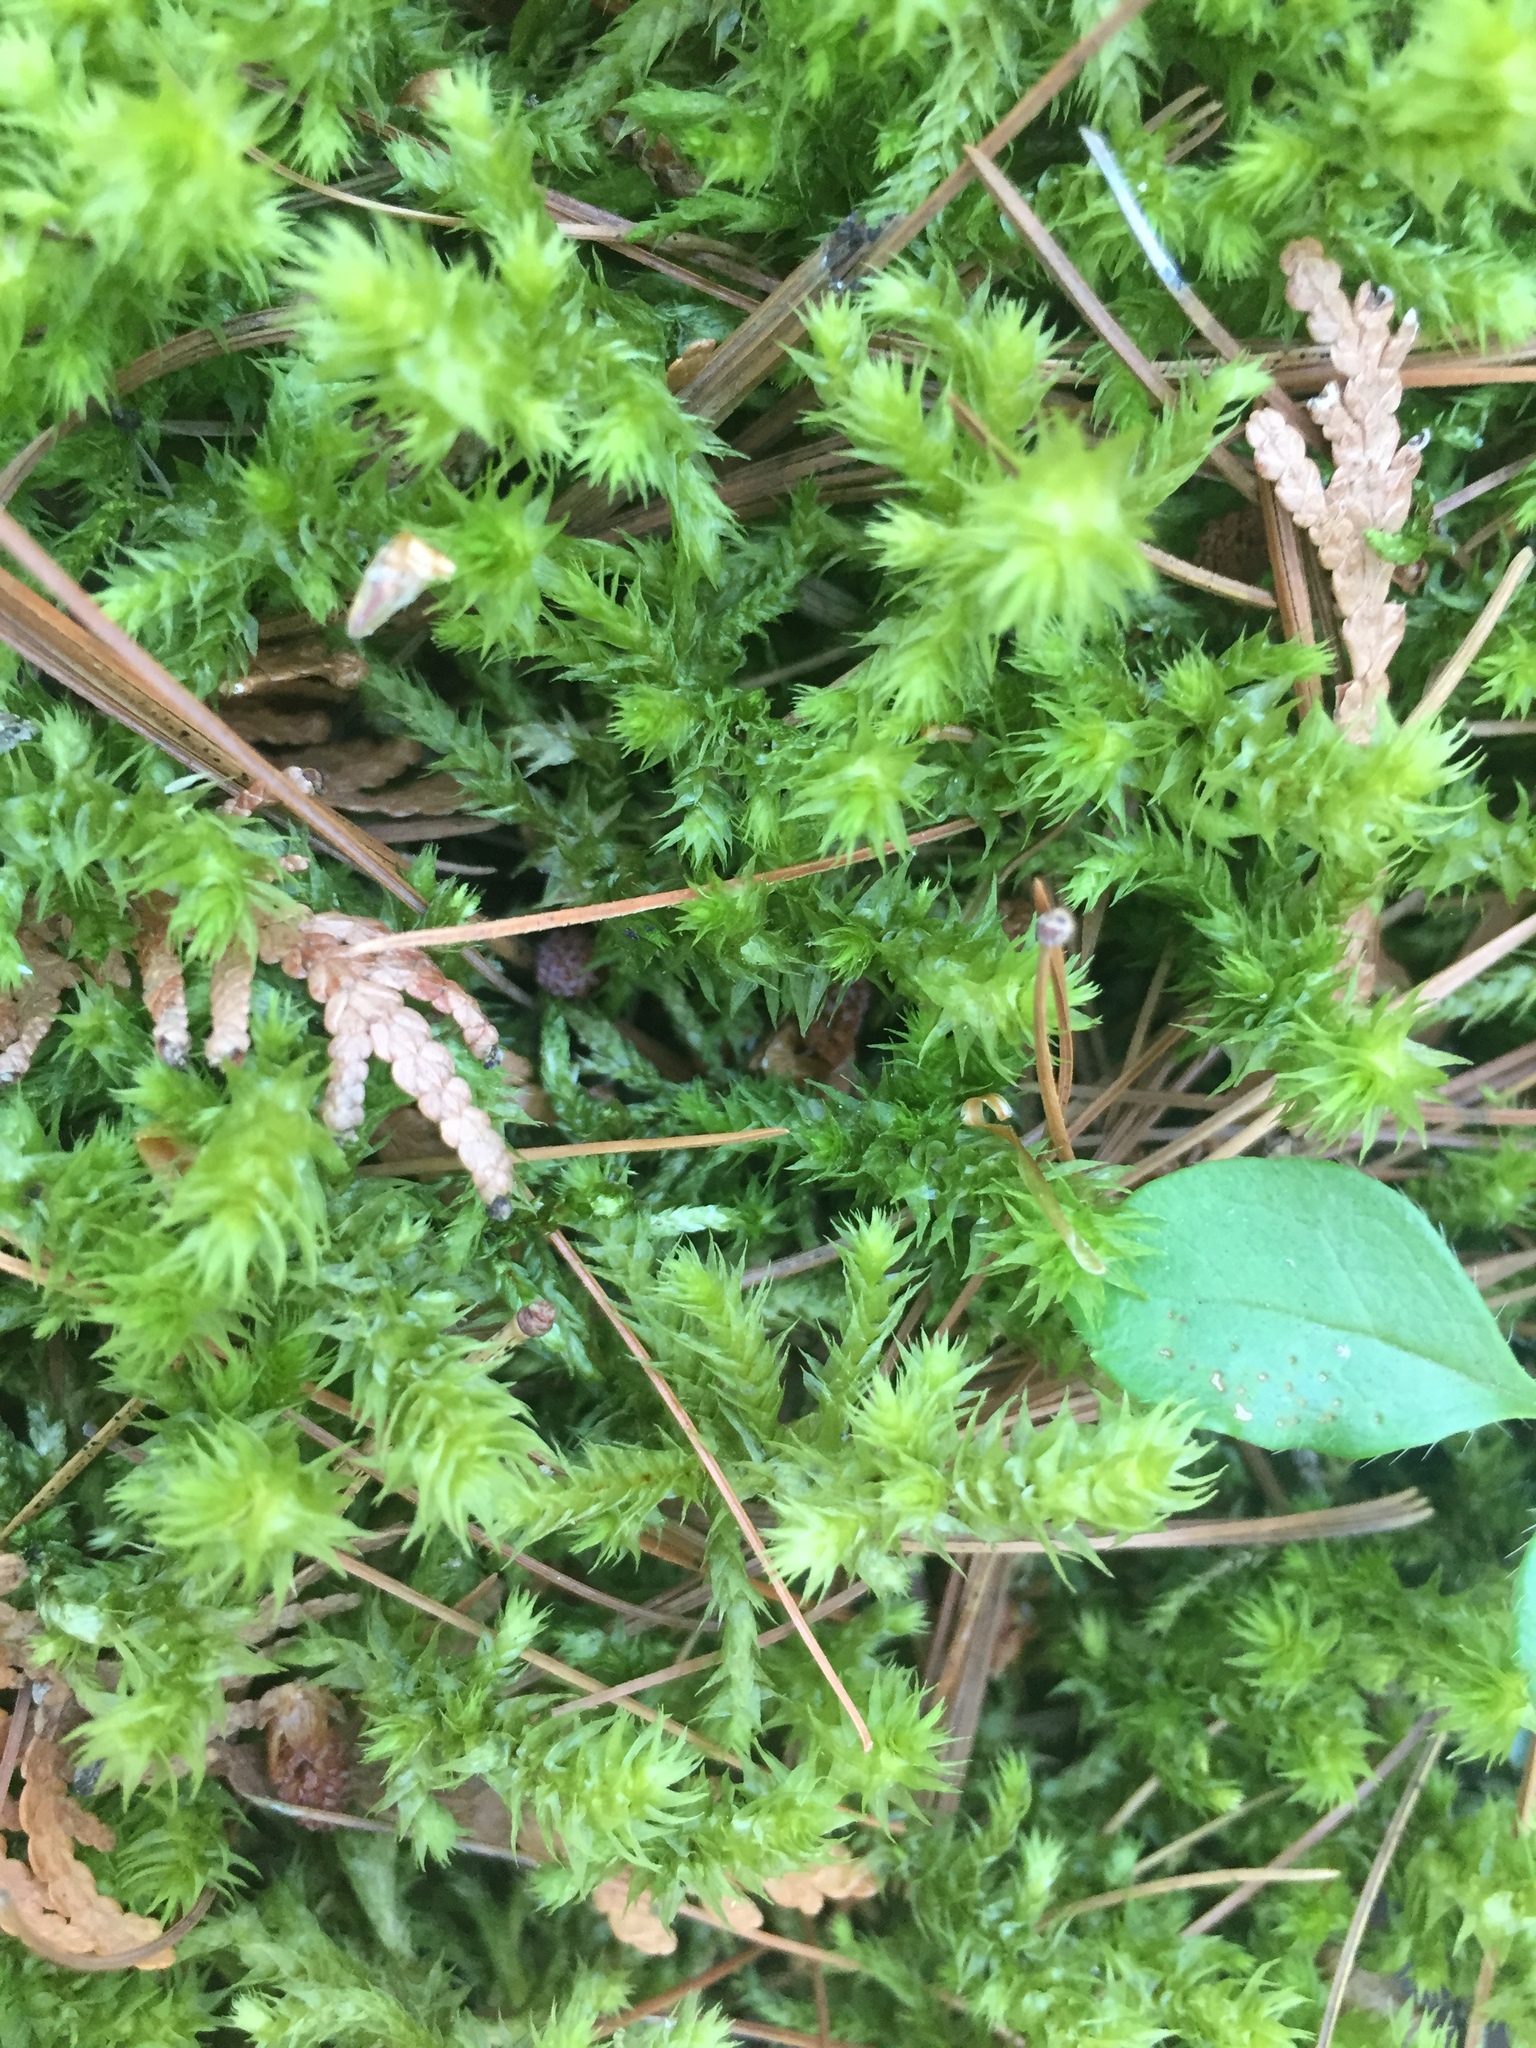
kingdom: Plantae
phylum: Bryophyta
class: Bryopsida
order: Hypnales
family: Hylocomiaceae
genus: Hylocomiadelphus
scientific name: Hylocomiadelphus triquetrus
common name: Rough goose neck moss
